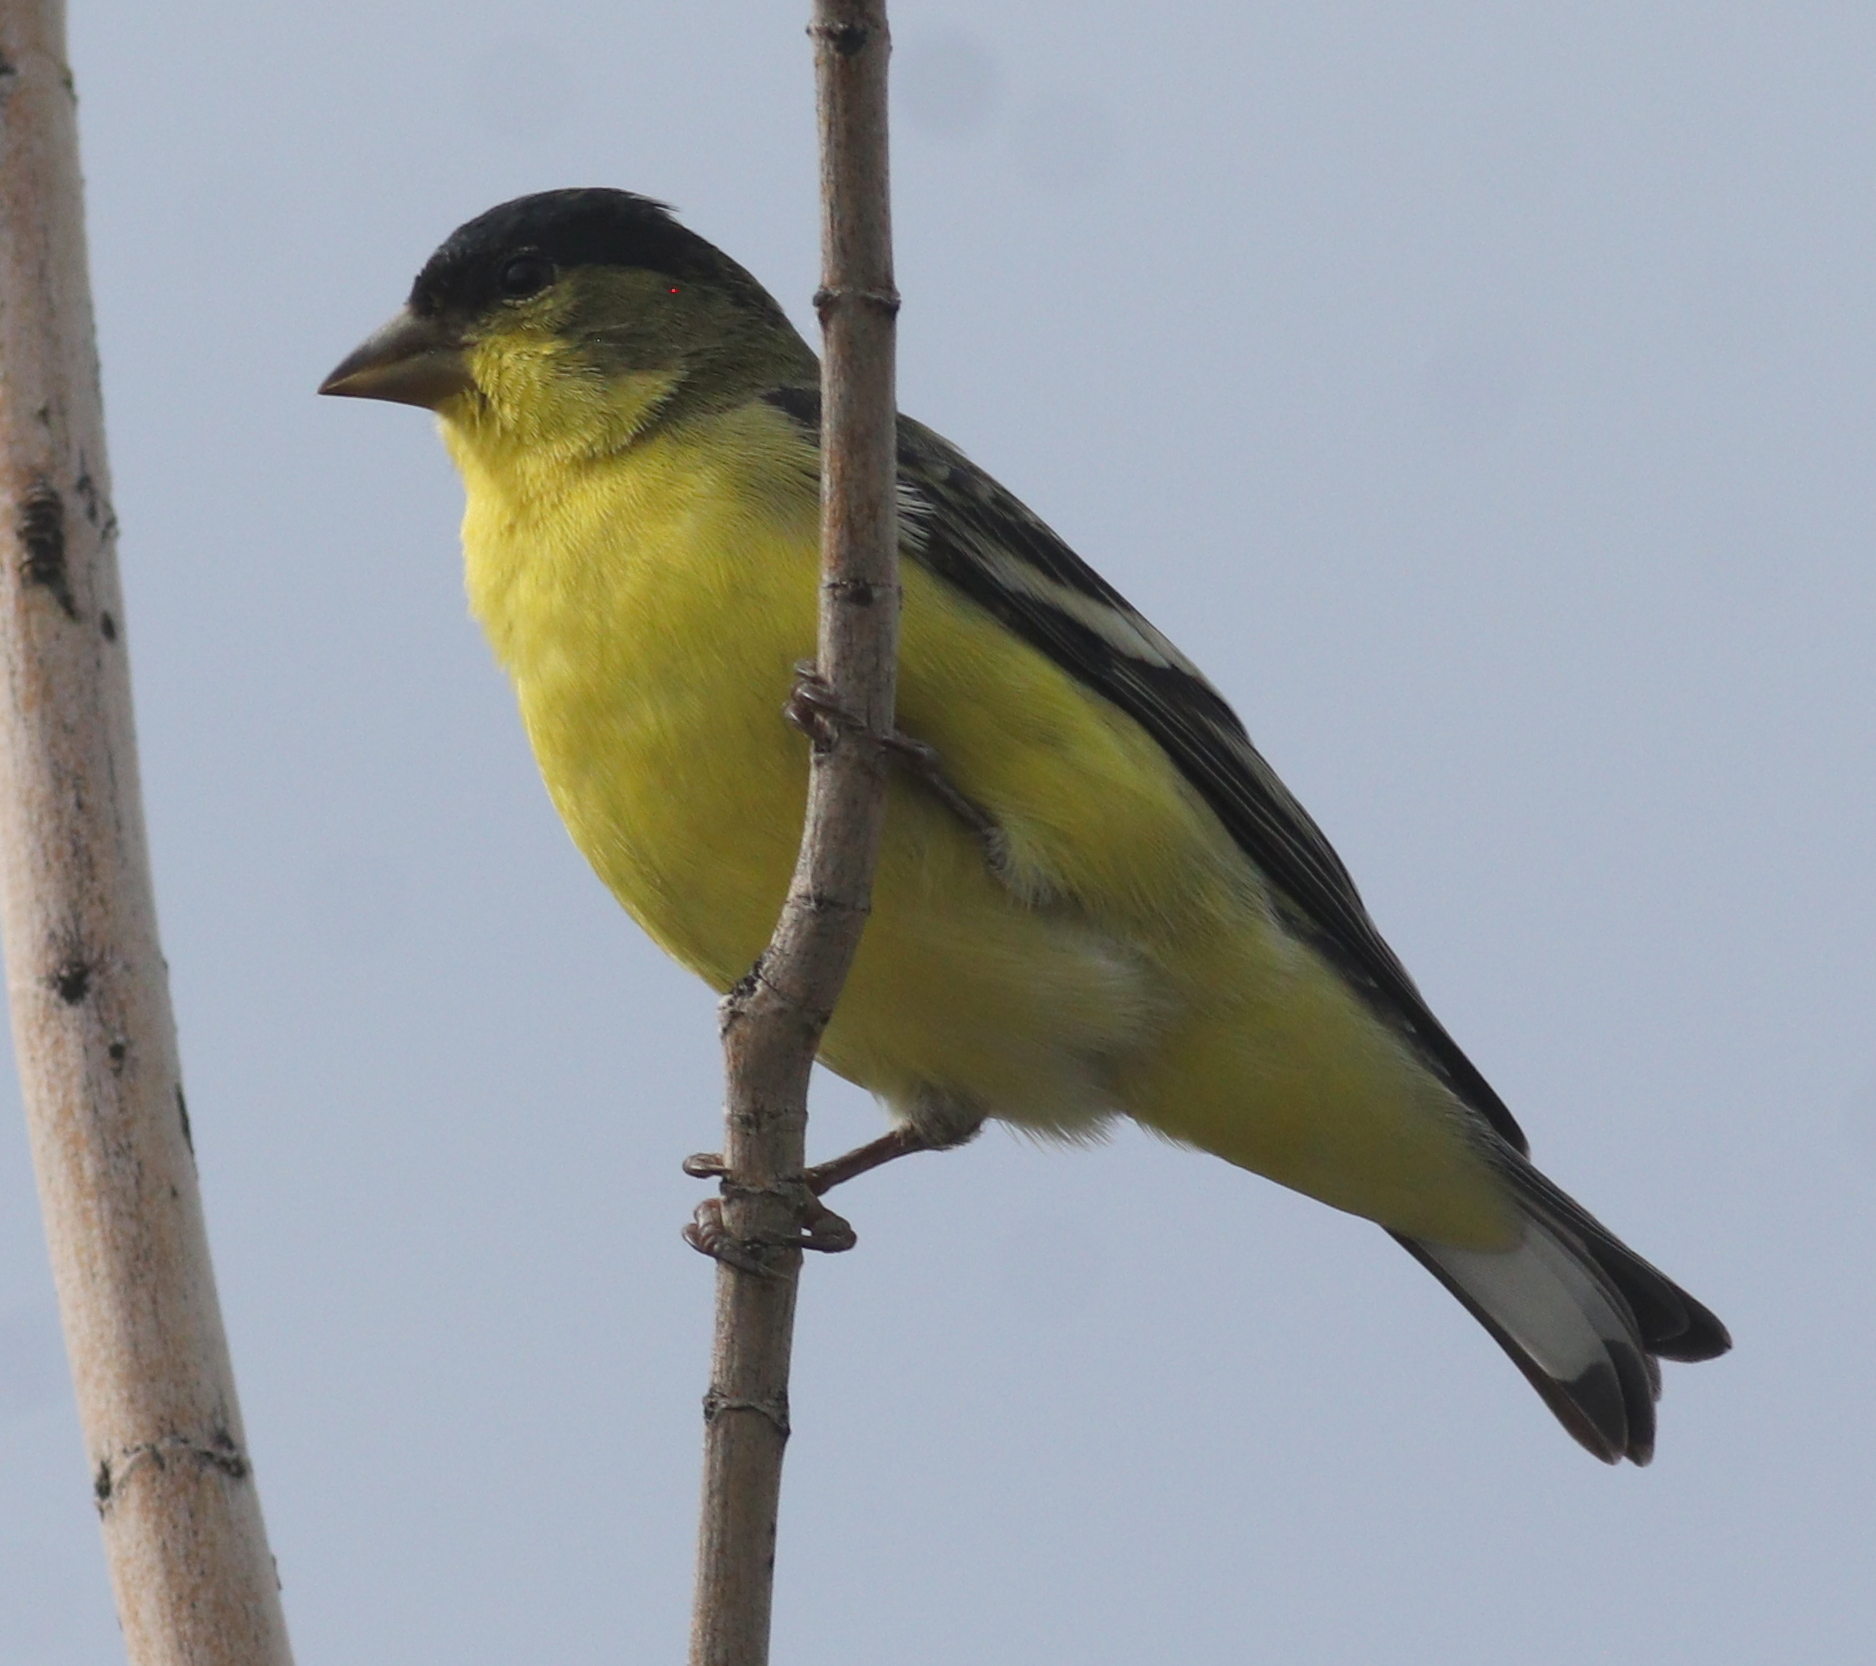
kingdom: Animalia
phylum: Chordata
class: Aves
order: Passeriformes
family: Fringillidae
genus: Spinus
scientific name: Spinus psaltria
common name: Lesser goldfinch
